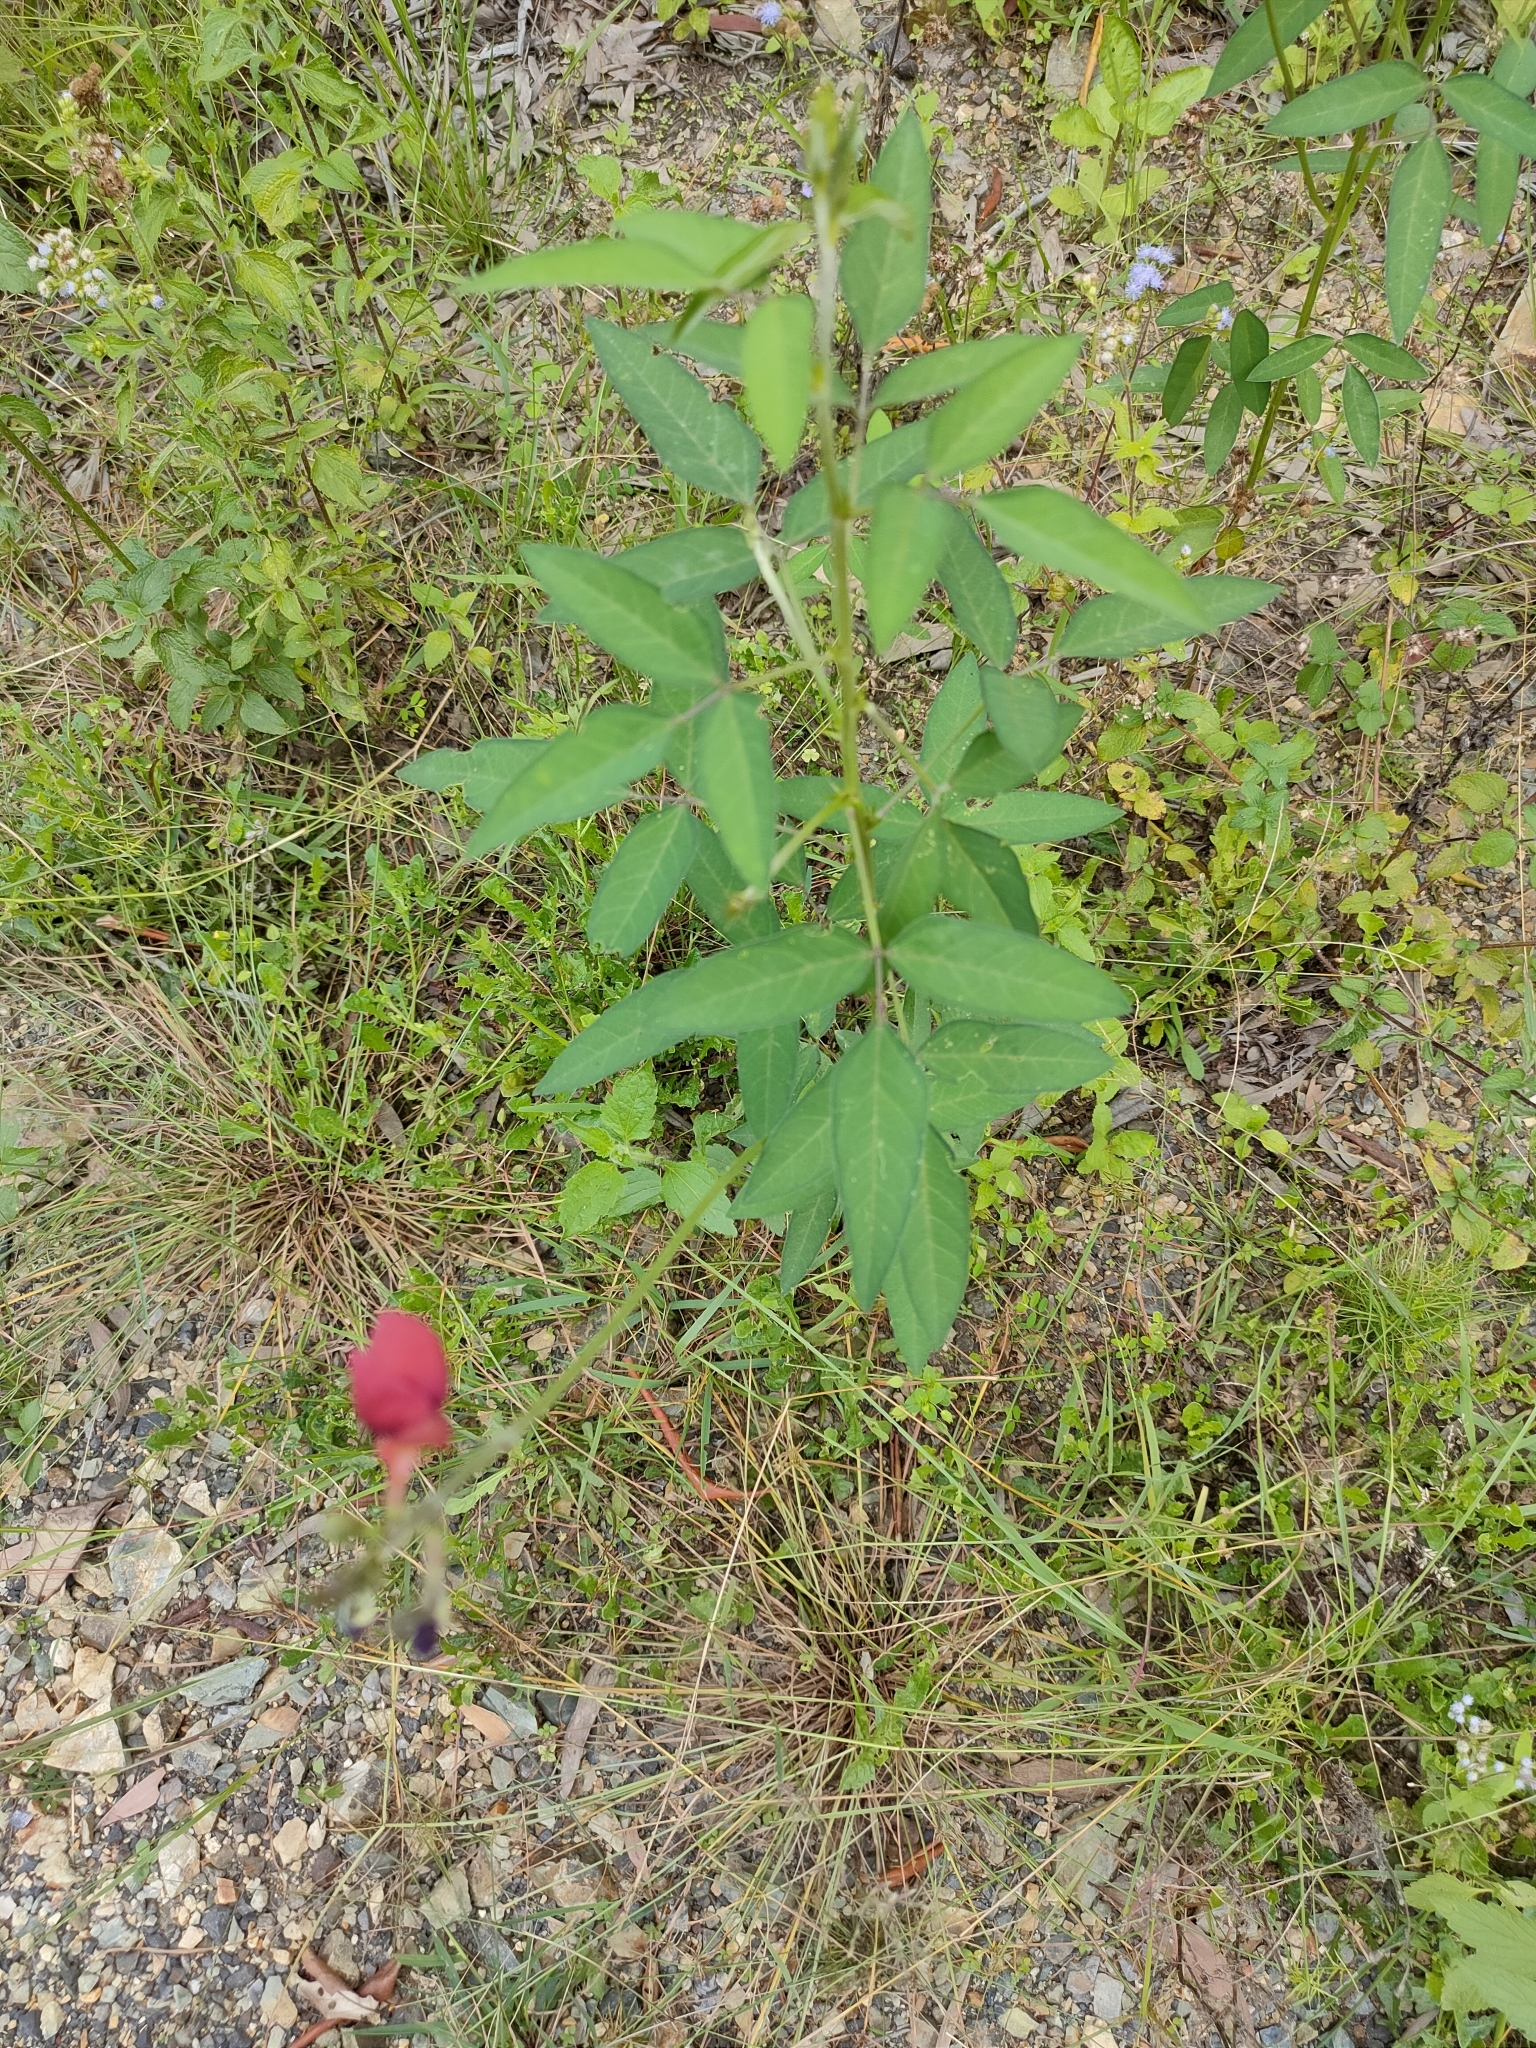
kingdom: Plantae
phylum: Tracheophyta
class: Magnoliopsida
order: Fabales
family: Fabaceae
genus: Macroptilium
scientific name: Macroptilium lathyroides
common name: Wild bushbean
